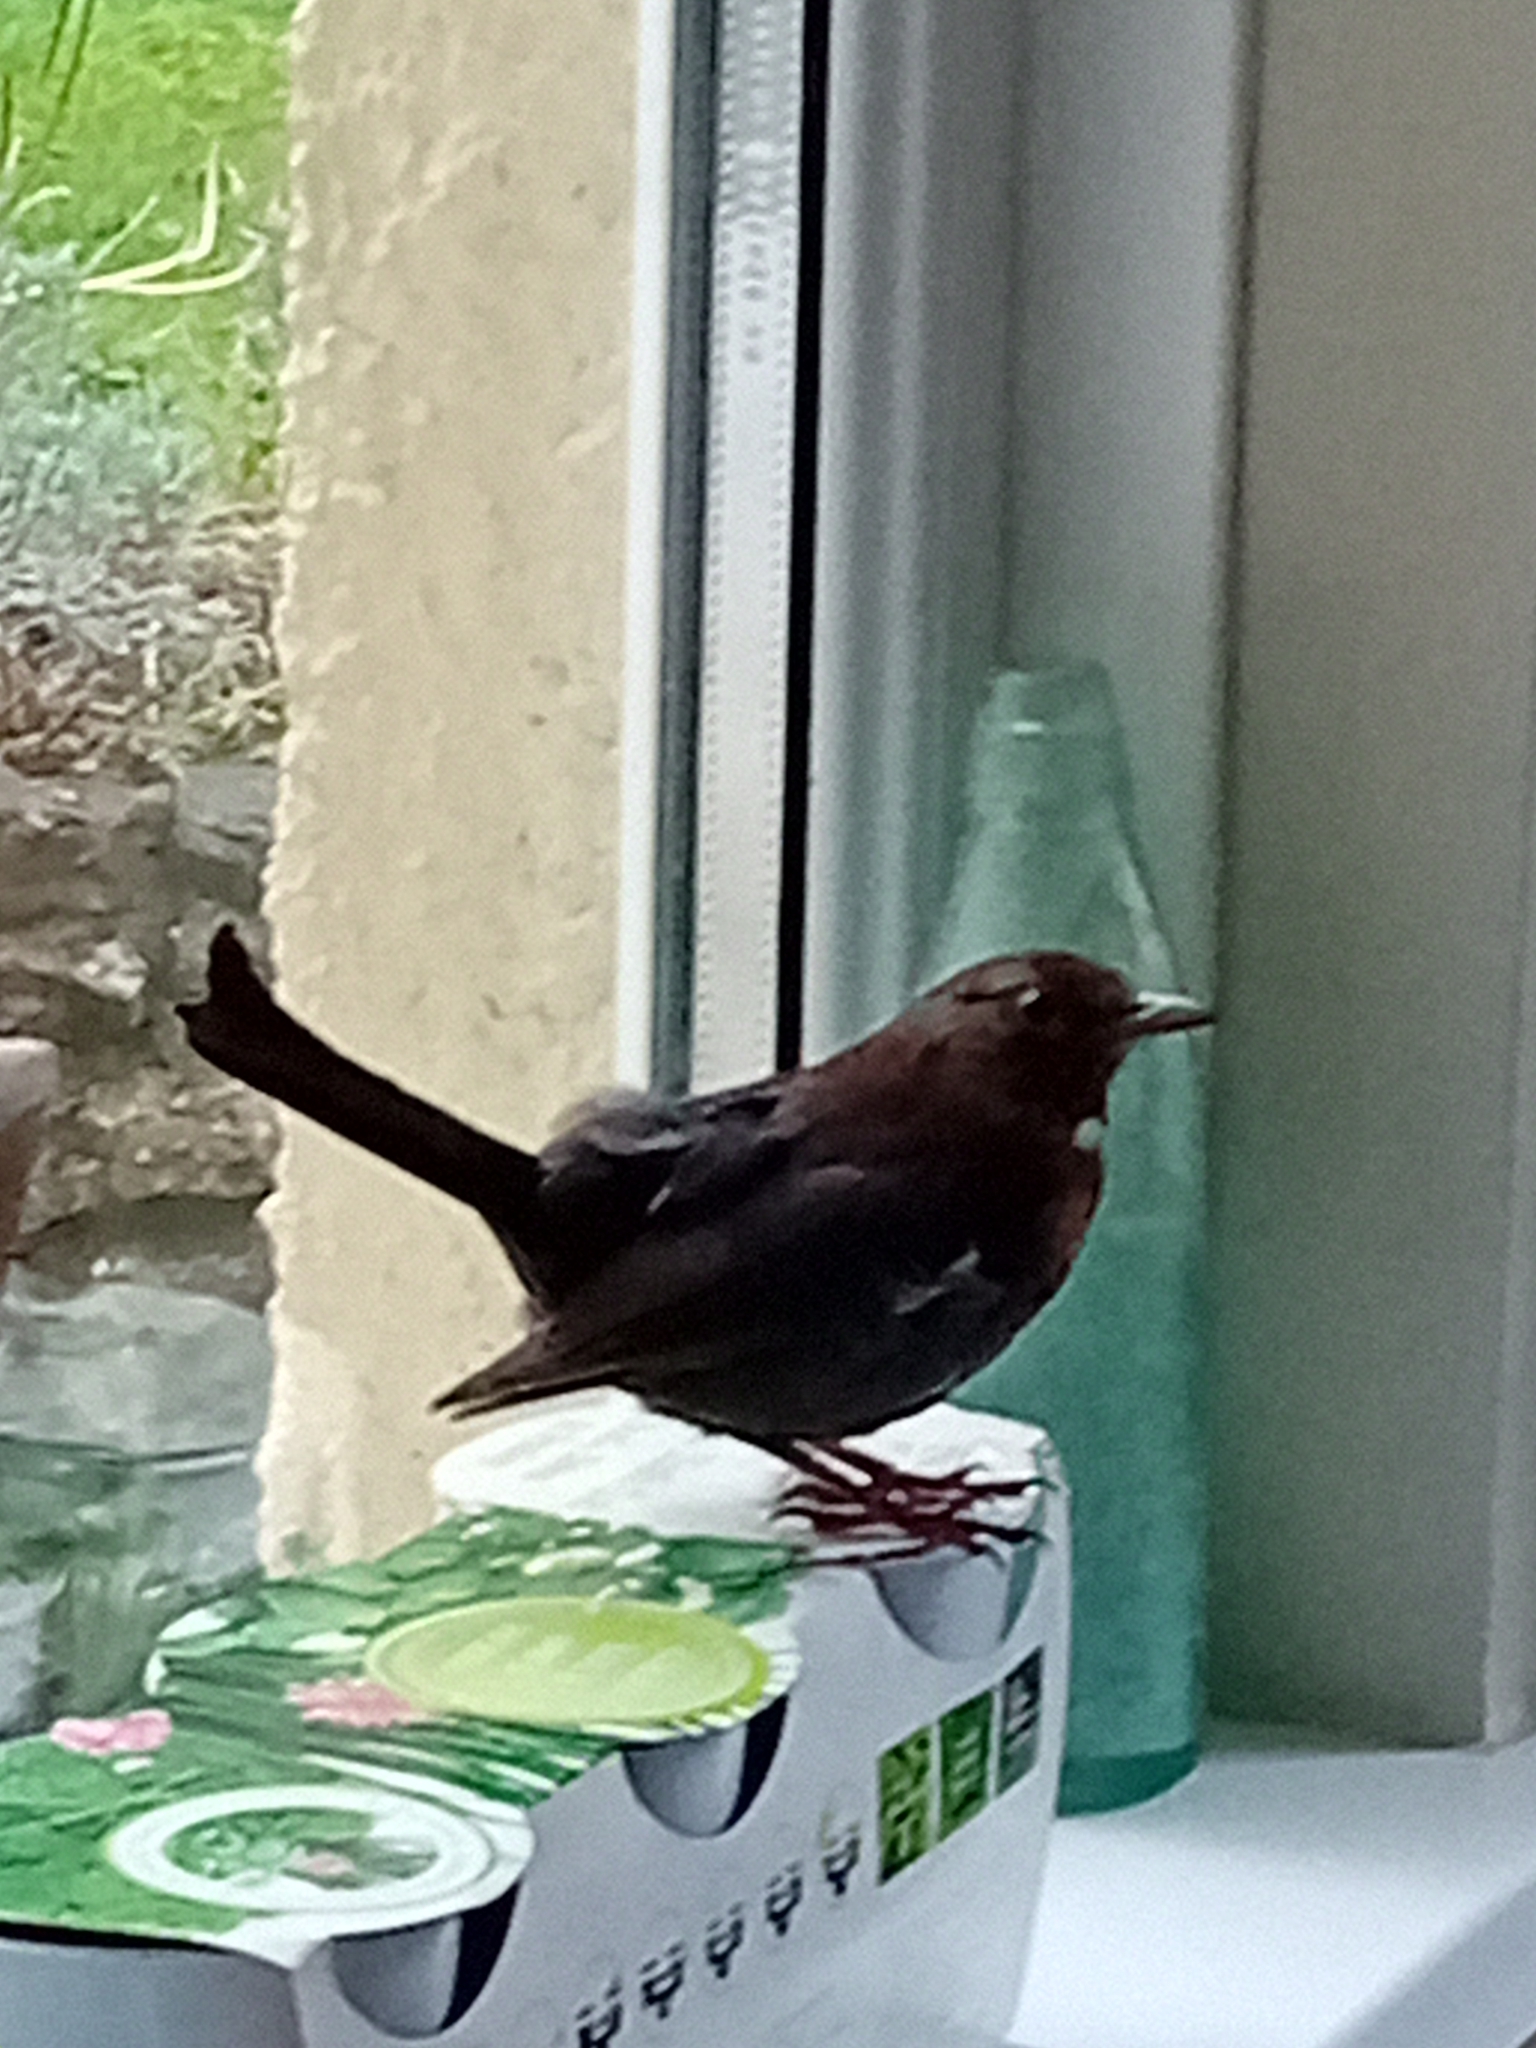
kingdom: Animalia
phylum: Chordata
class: Aves
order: Passeriformes
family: Turdidae
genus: Turdus
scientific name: Turdus merula
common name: Common blackbird
